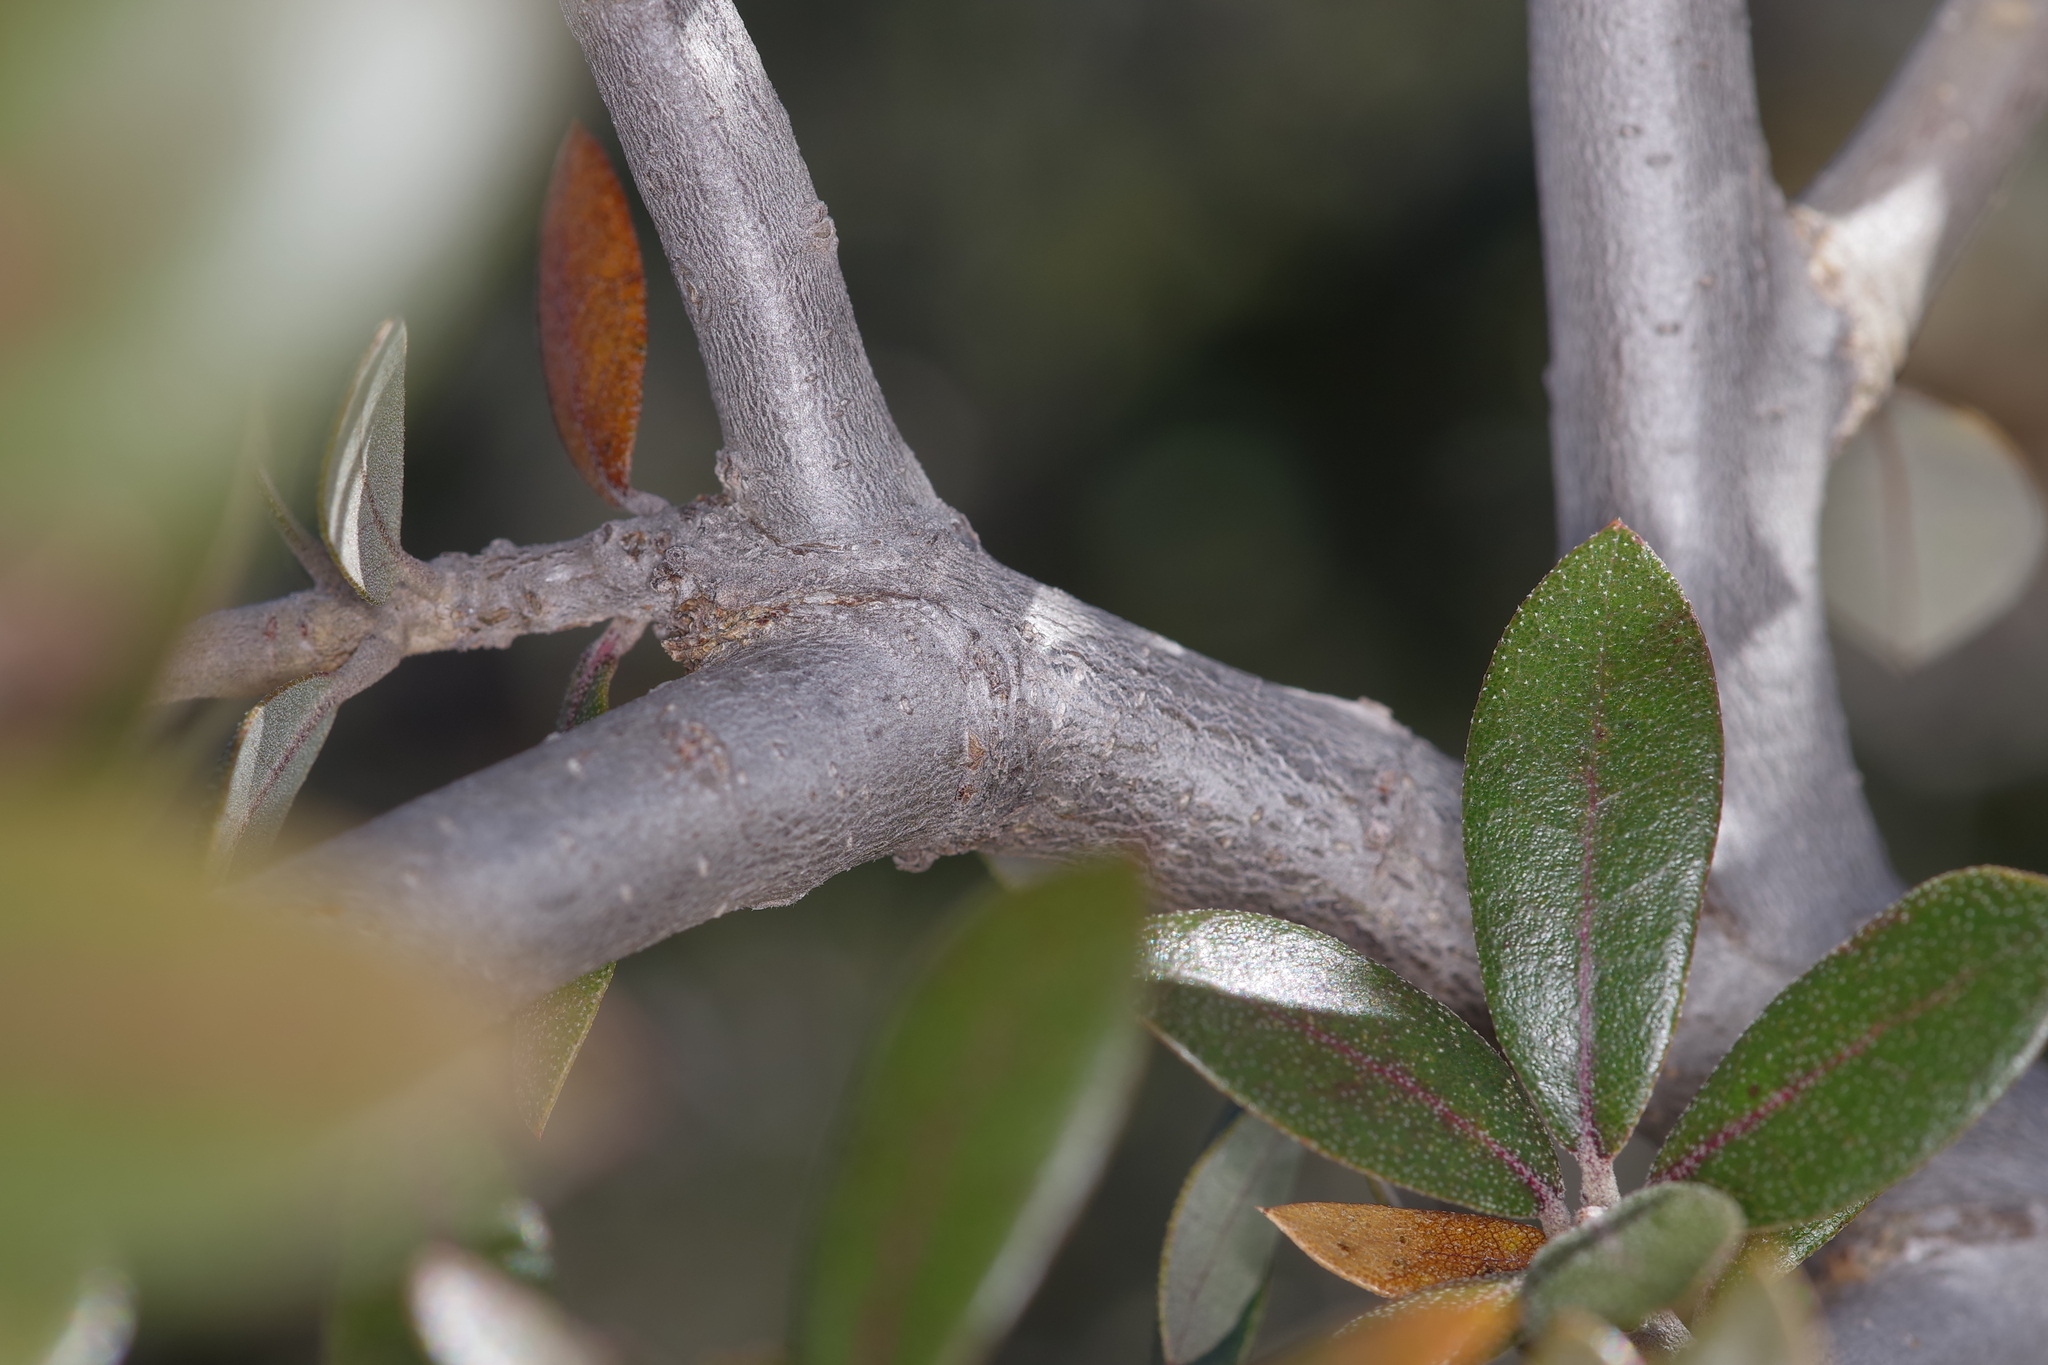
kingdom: Plantae
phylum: Tracheophyta
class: Magnoliopsida
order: Fagales
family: Fagaceae
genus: Quercus
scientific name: Quercus fusiformis
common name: Texas live oak
